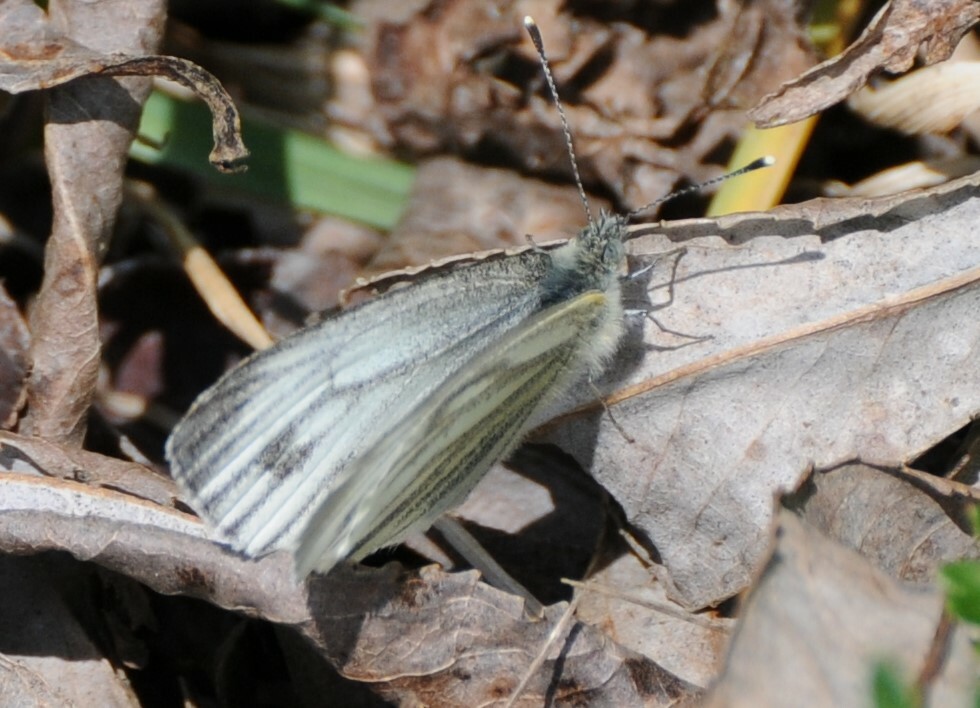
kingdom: Animalia
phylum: Arthropoda
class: Insecta
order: Lepidoptera
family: Pieridae
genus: Pieris
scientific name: Pieris napi
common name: Green-veined white
